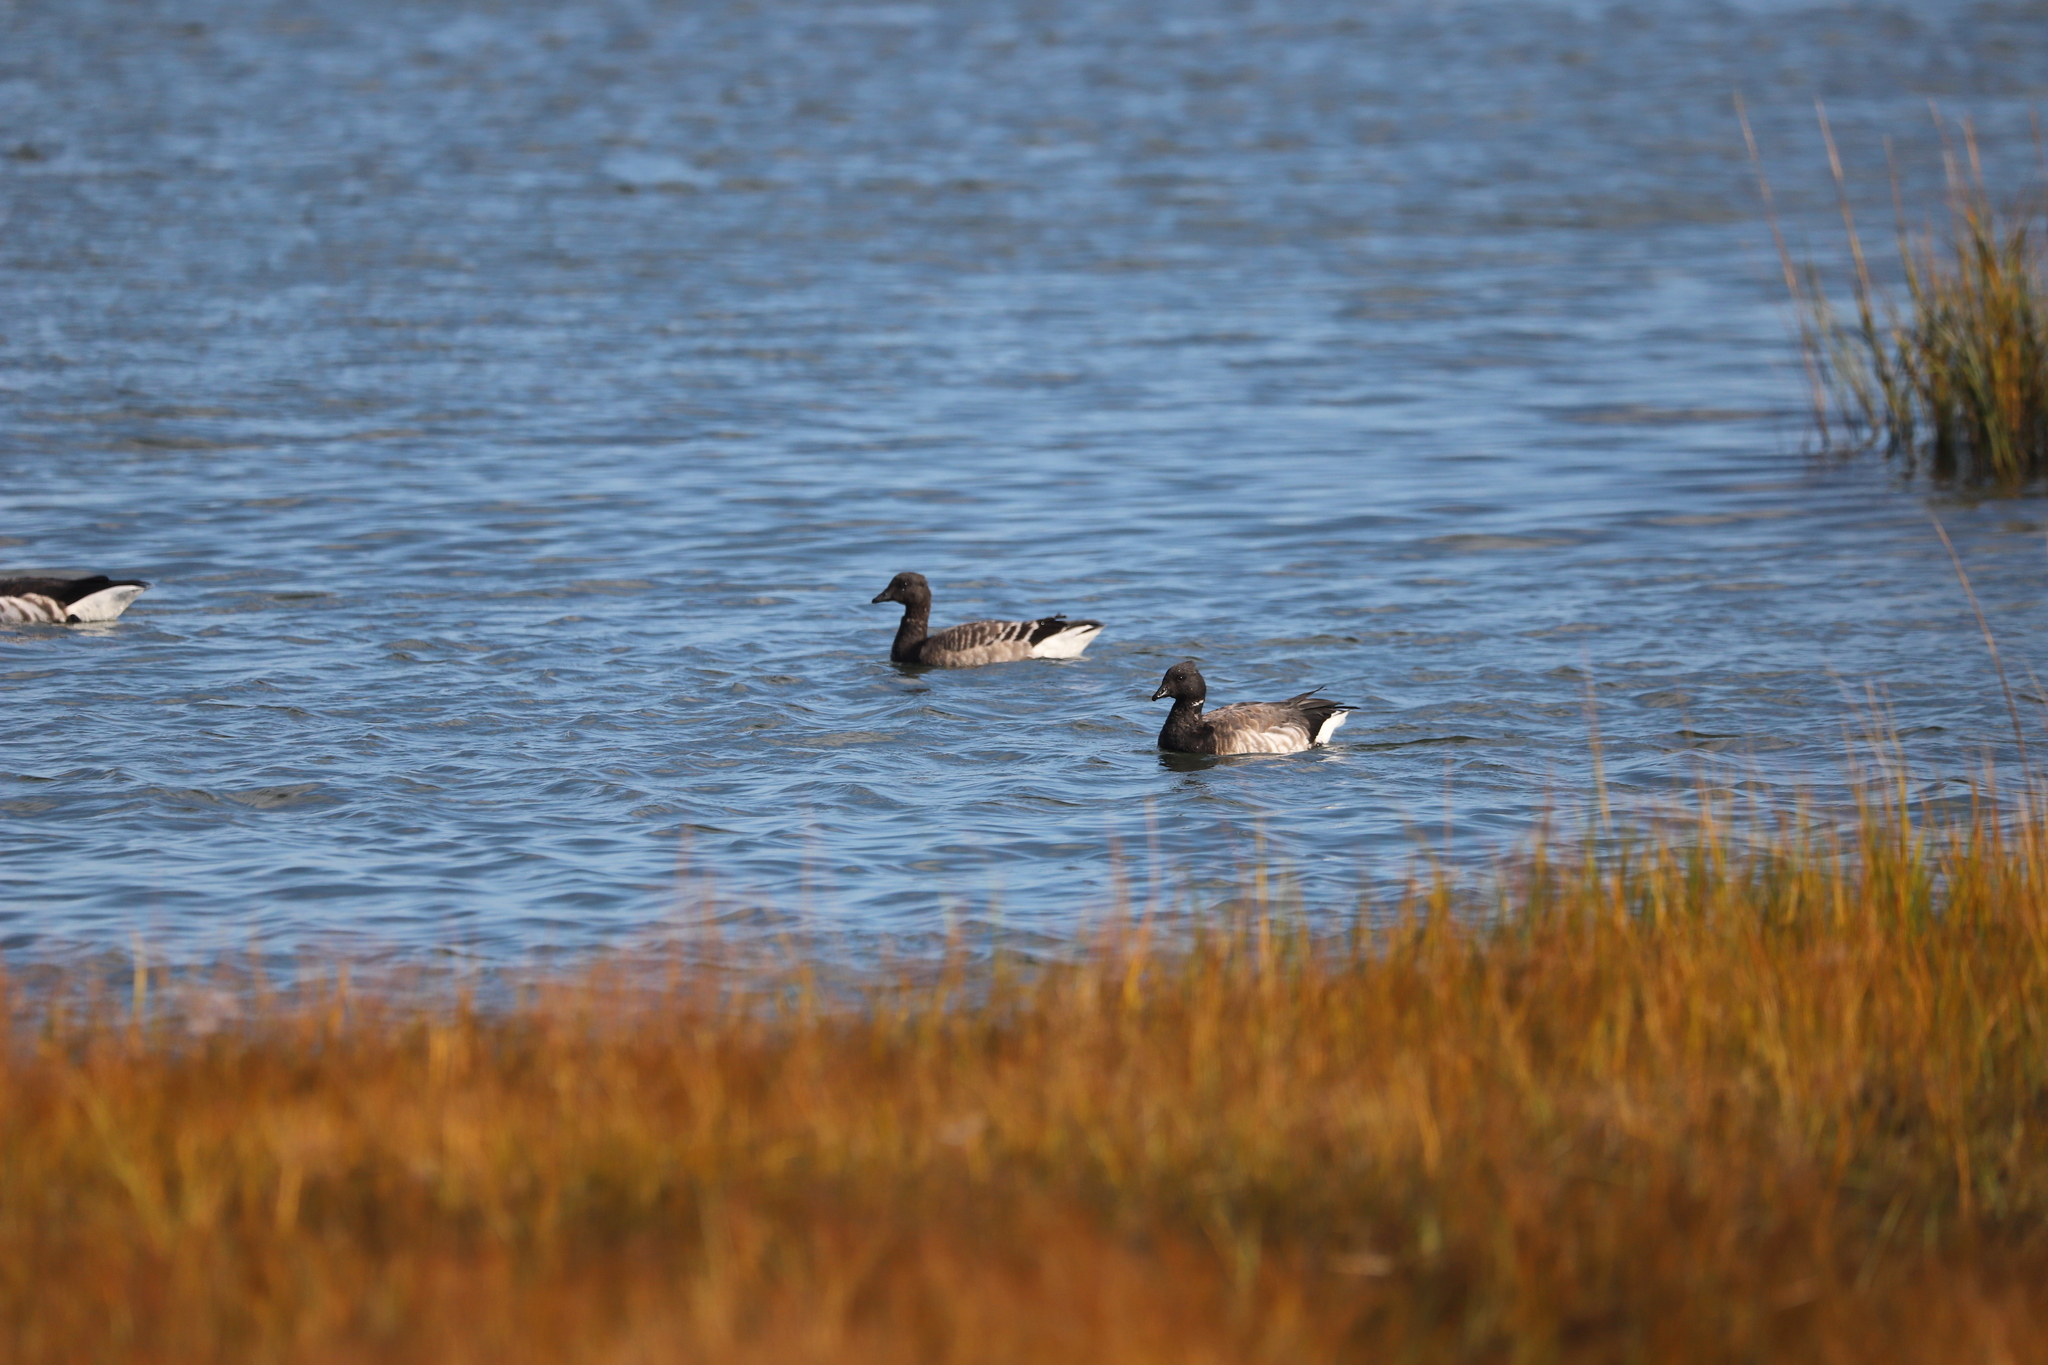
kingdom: Animalia
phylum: Chordata
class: Aves
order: Anseriformes
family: Anatidae
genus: Branta
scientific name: Branta bernicla
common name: Brant goose
